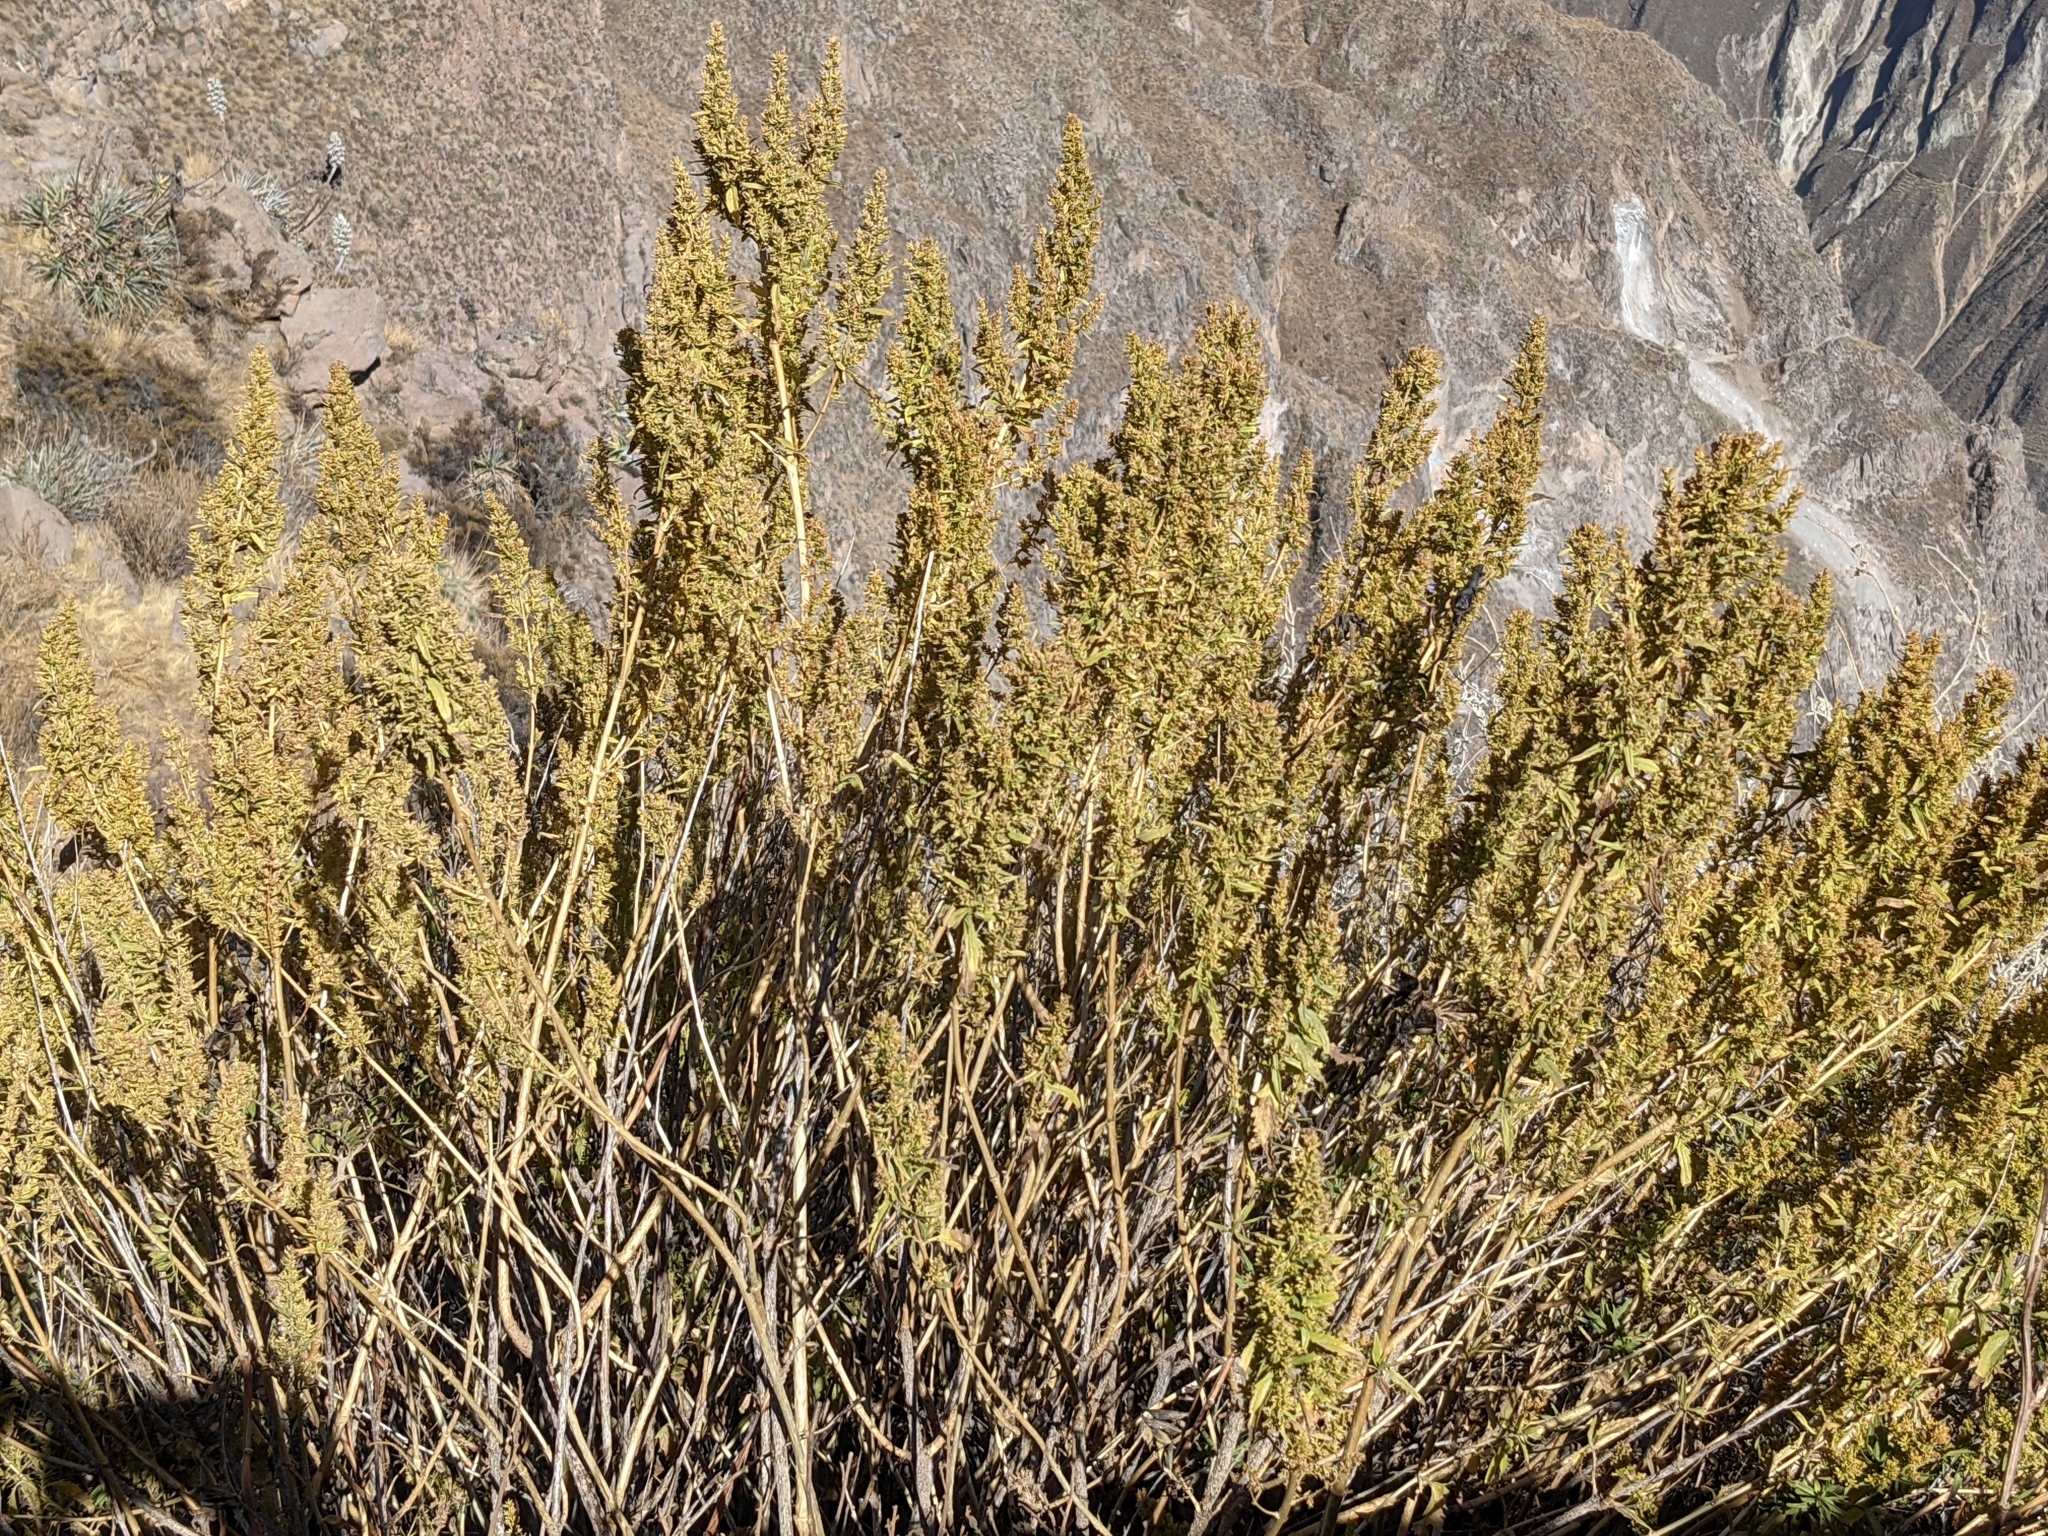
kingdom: Plantae
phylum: Tracheophyta
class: Magnoliopsida
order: Asterales
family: Asteraceae
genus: Ophryosporus
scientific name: Ophryosporus peruvianus
